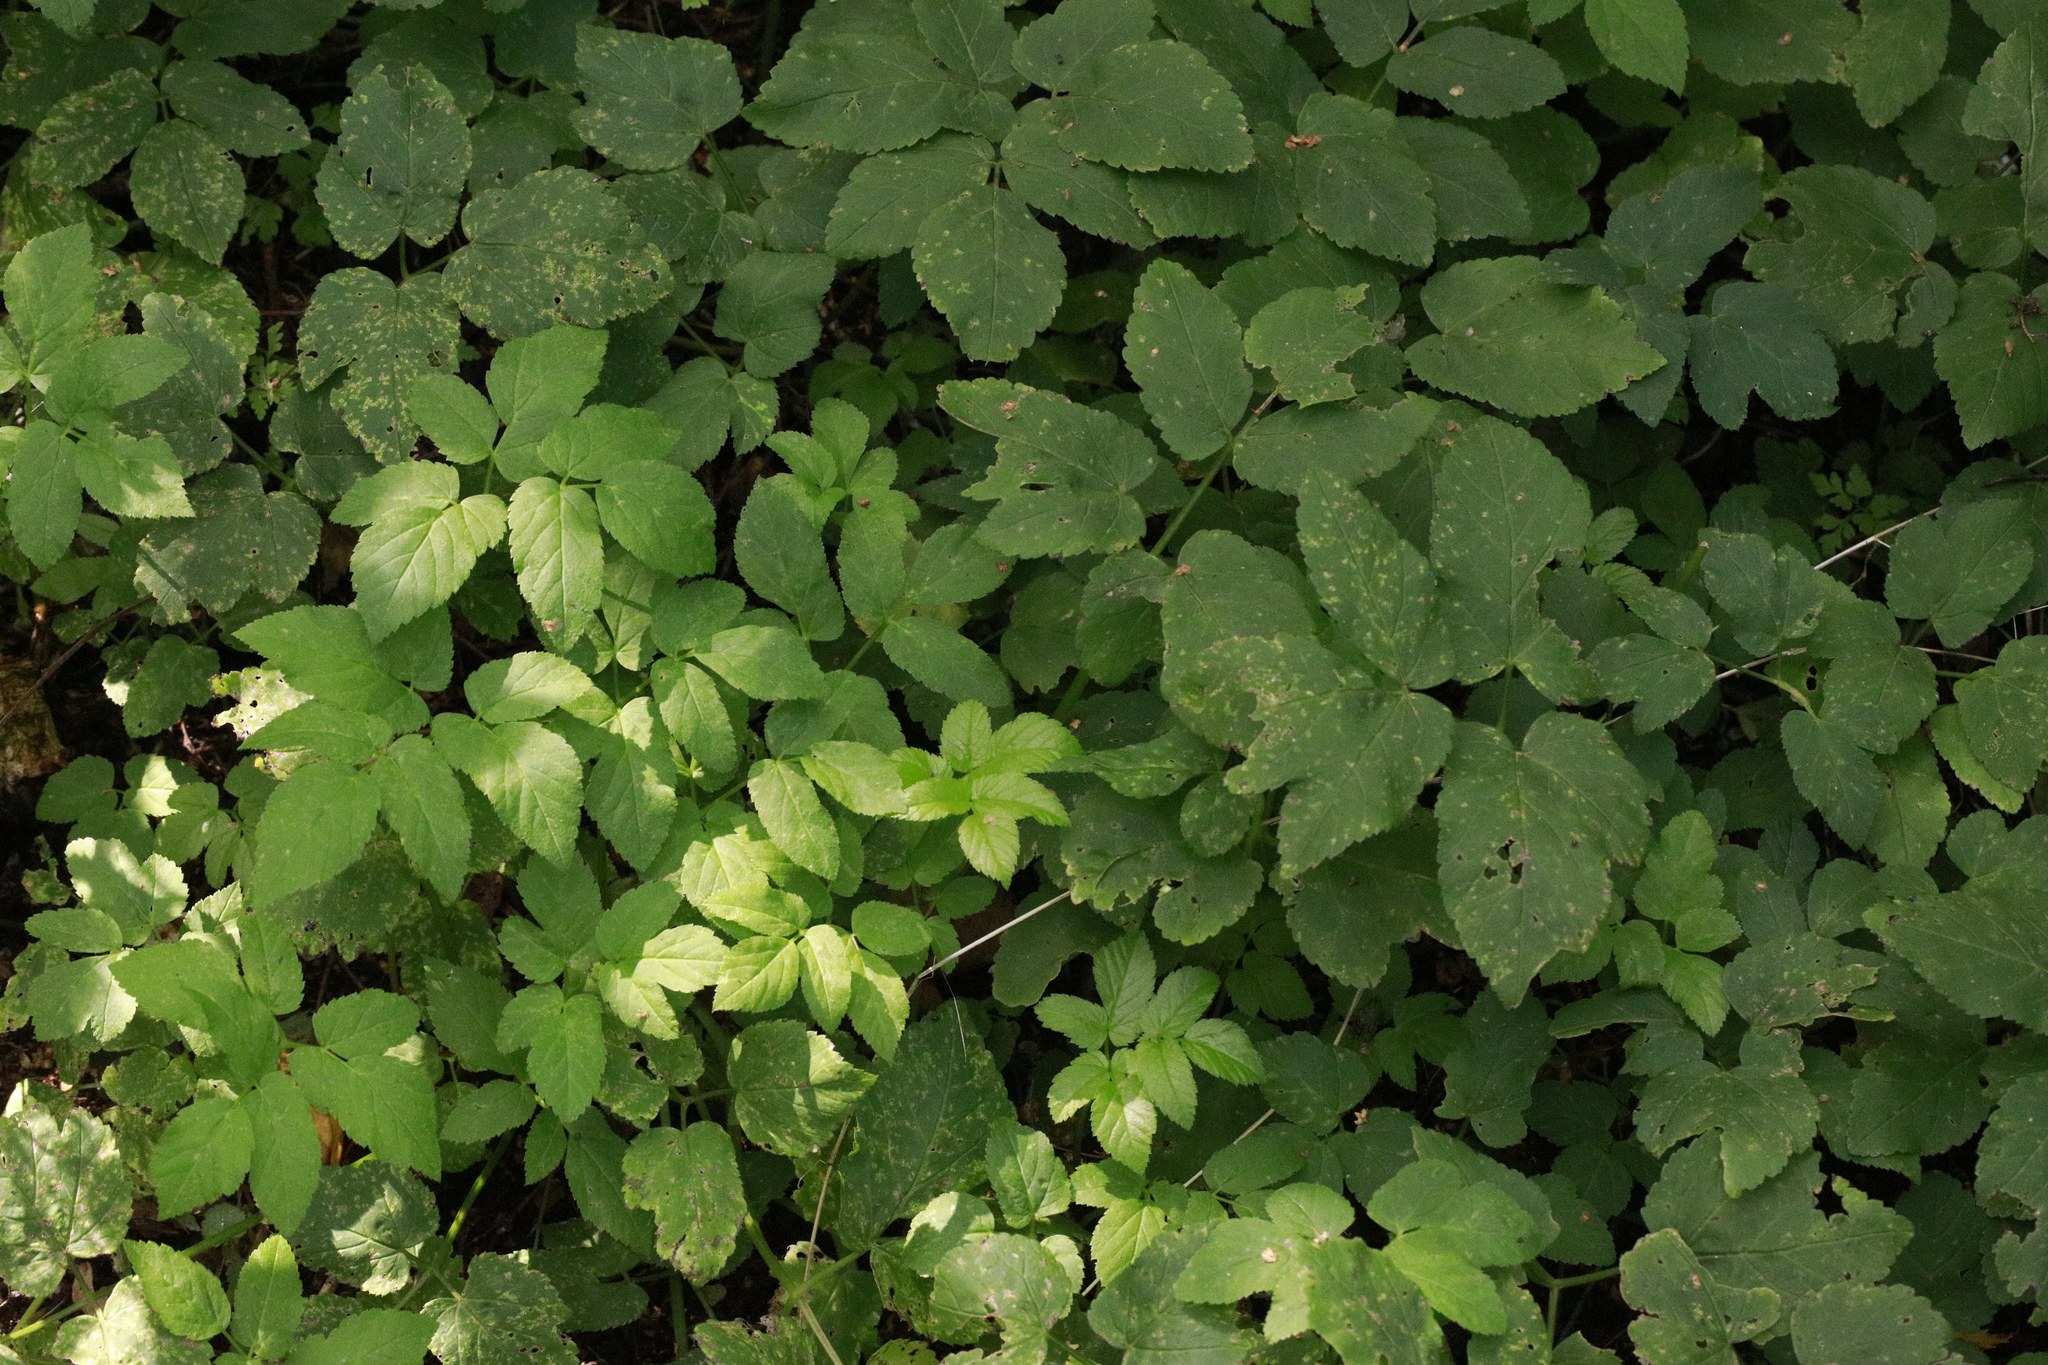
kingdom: Plantae
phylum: Tracheophyta
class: Magnoliopsida
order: Apiales
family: Apiaceae
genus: Aegopodium
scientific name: Aegopodium podagraria
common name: Ground-elder
